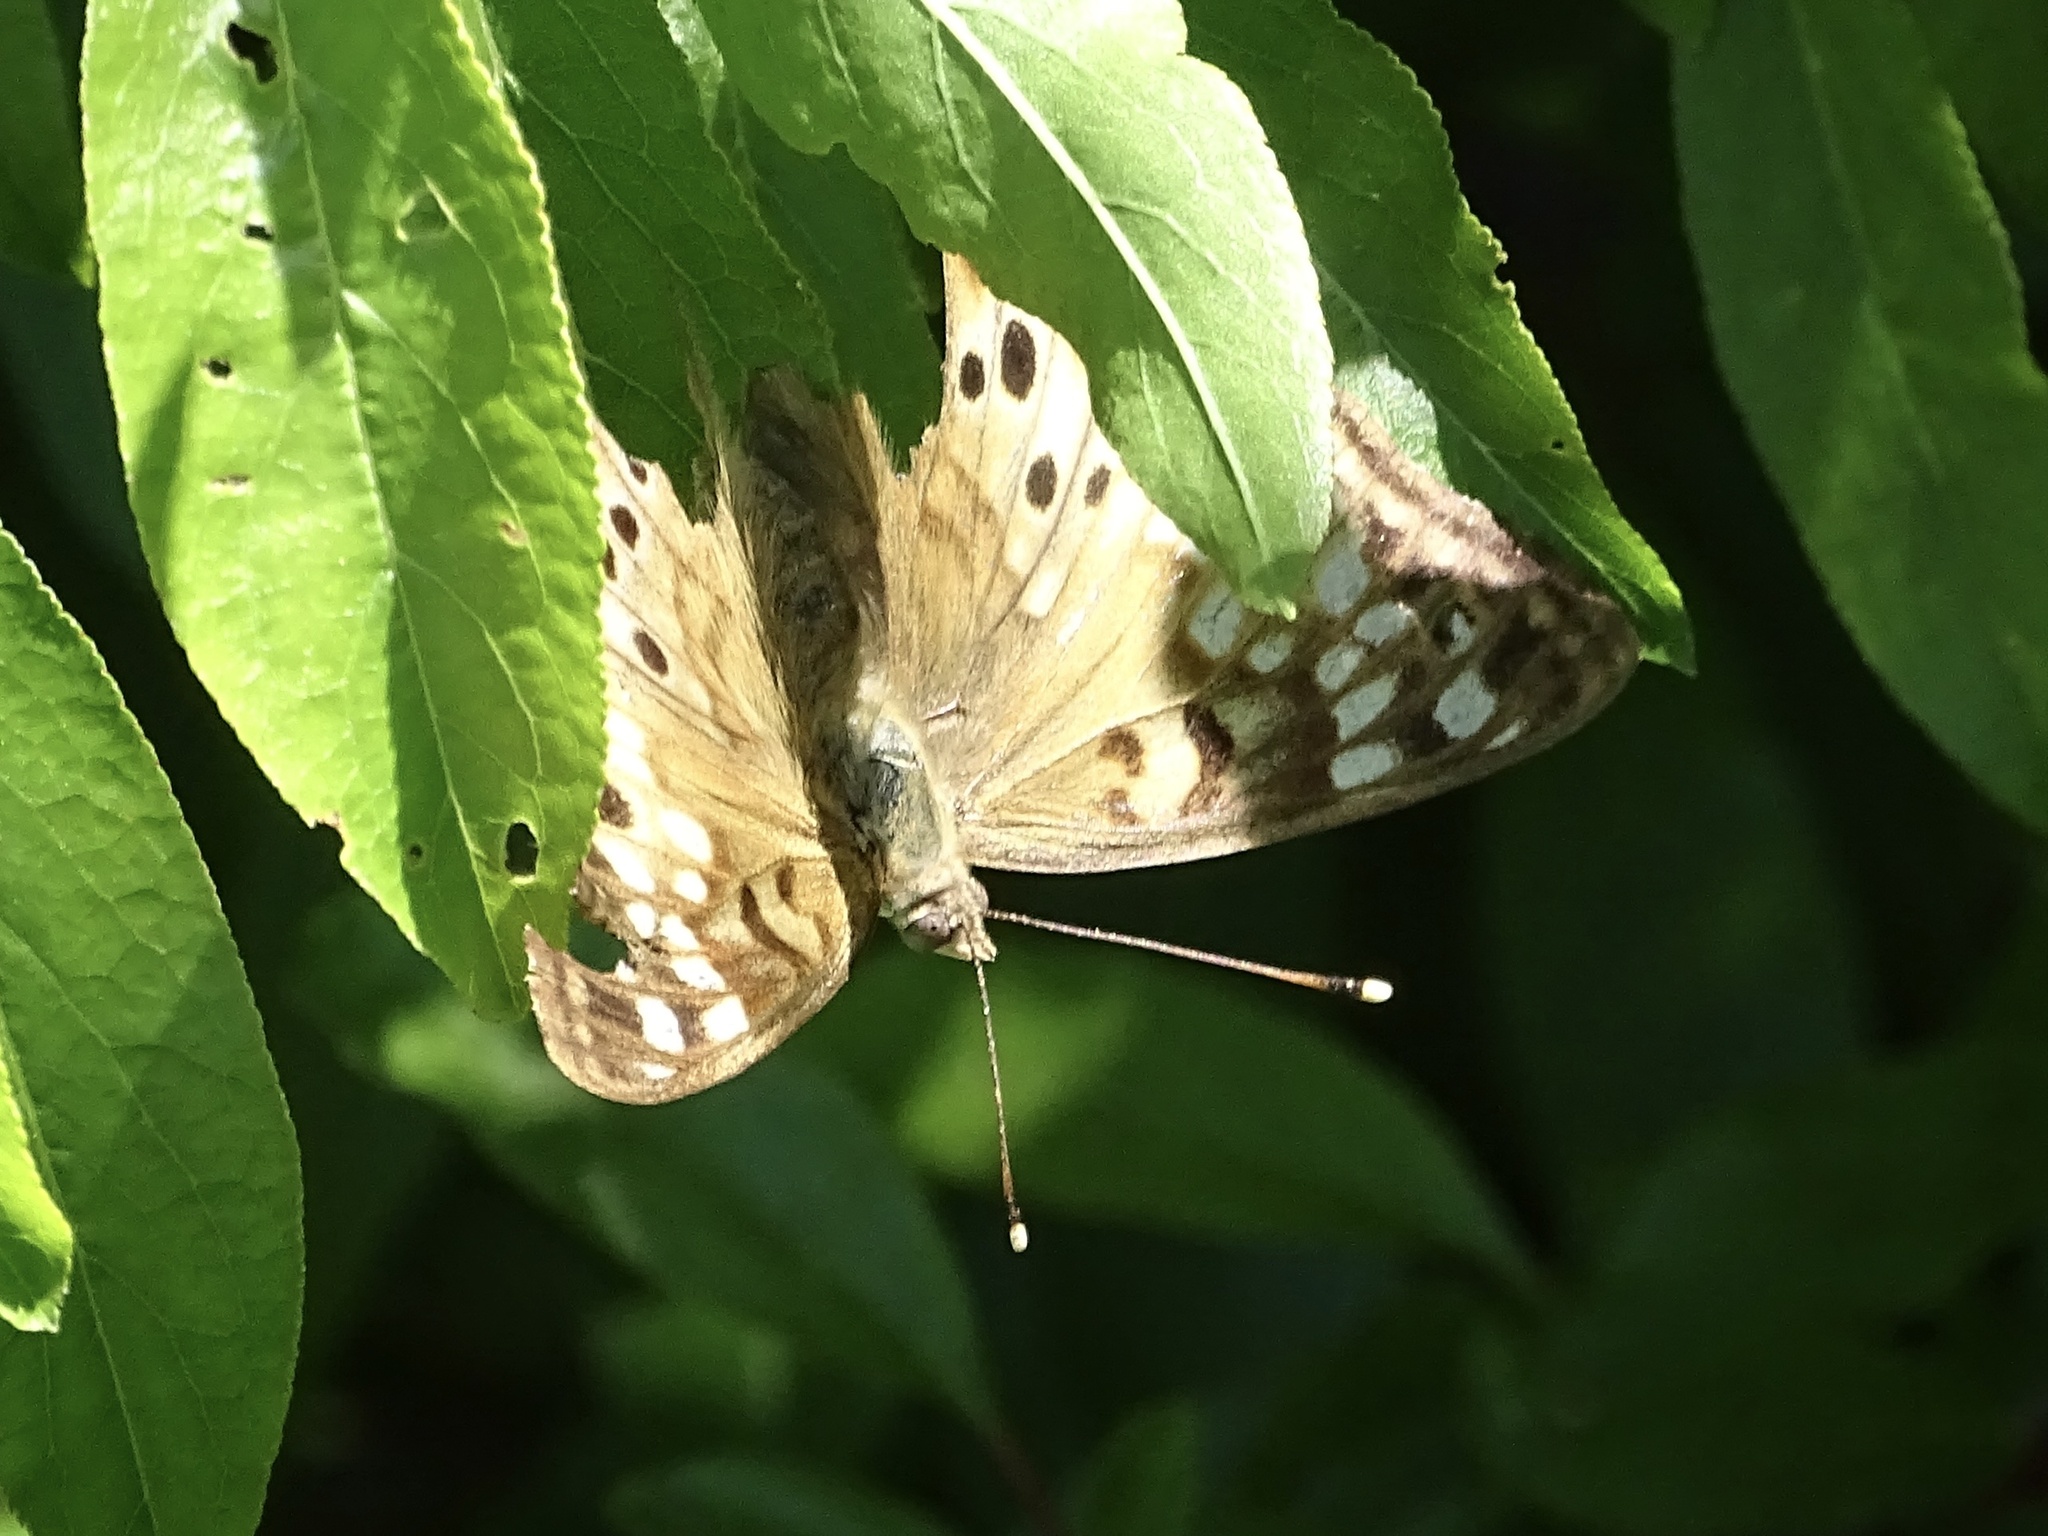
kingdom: Animalia
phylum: Arthropoda
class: Insecta
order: Lepidoptera
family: Nymphalidae
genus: Asterocampa
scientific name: Asterocampa celtis
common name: Hackberry emperor
